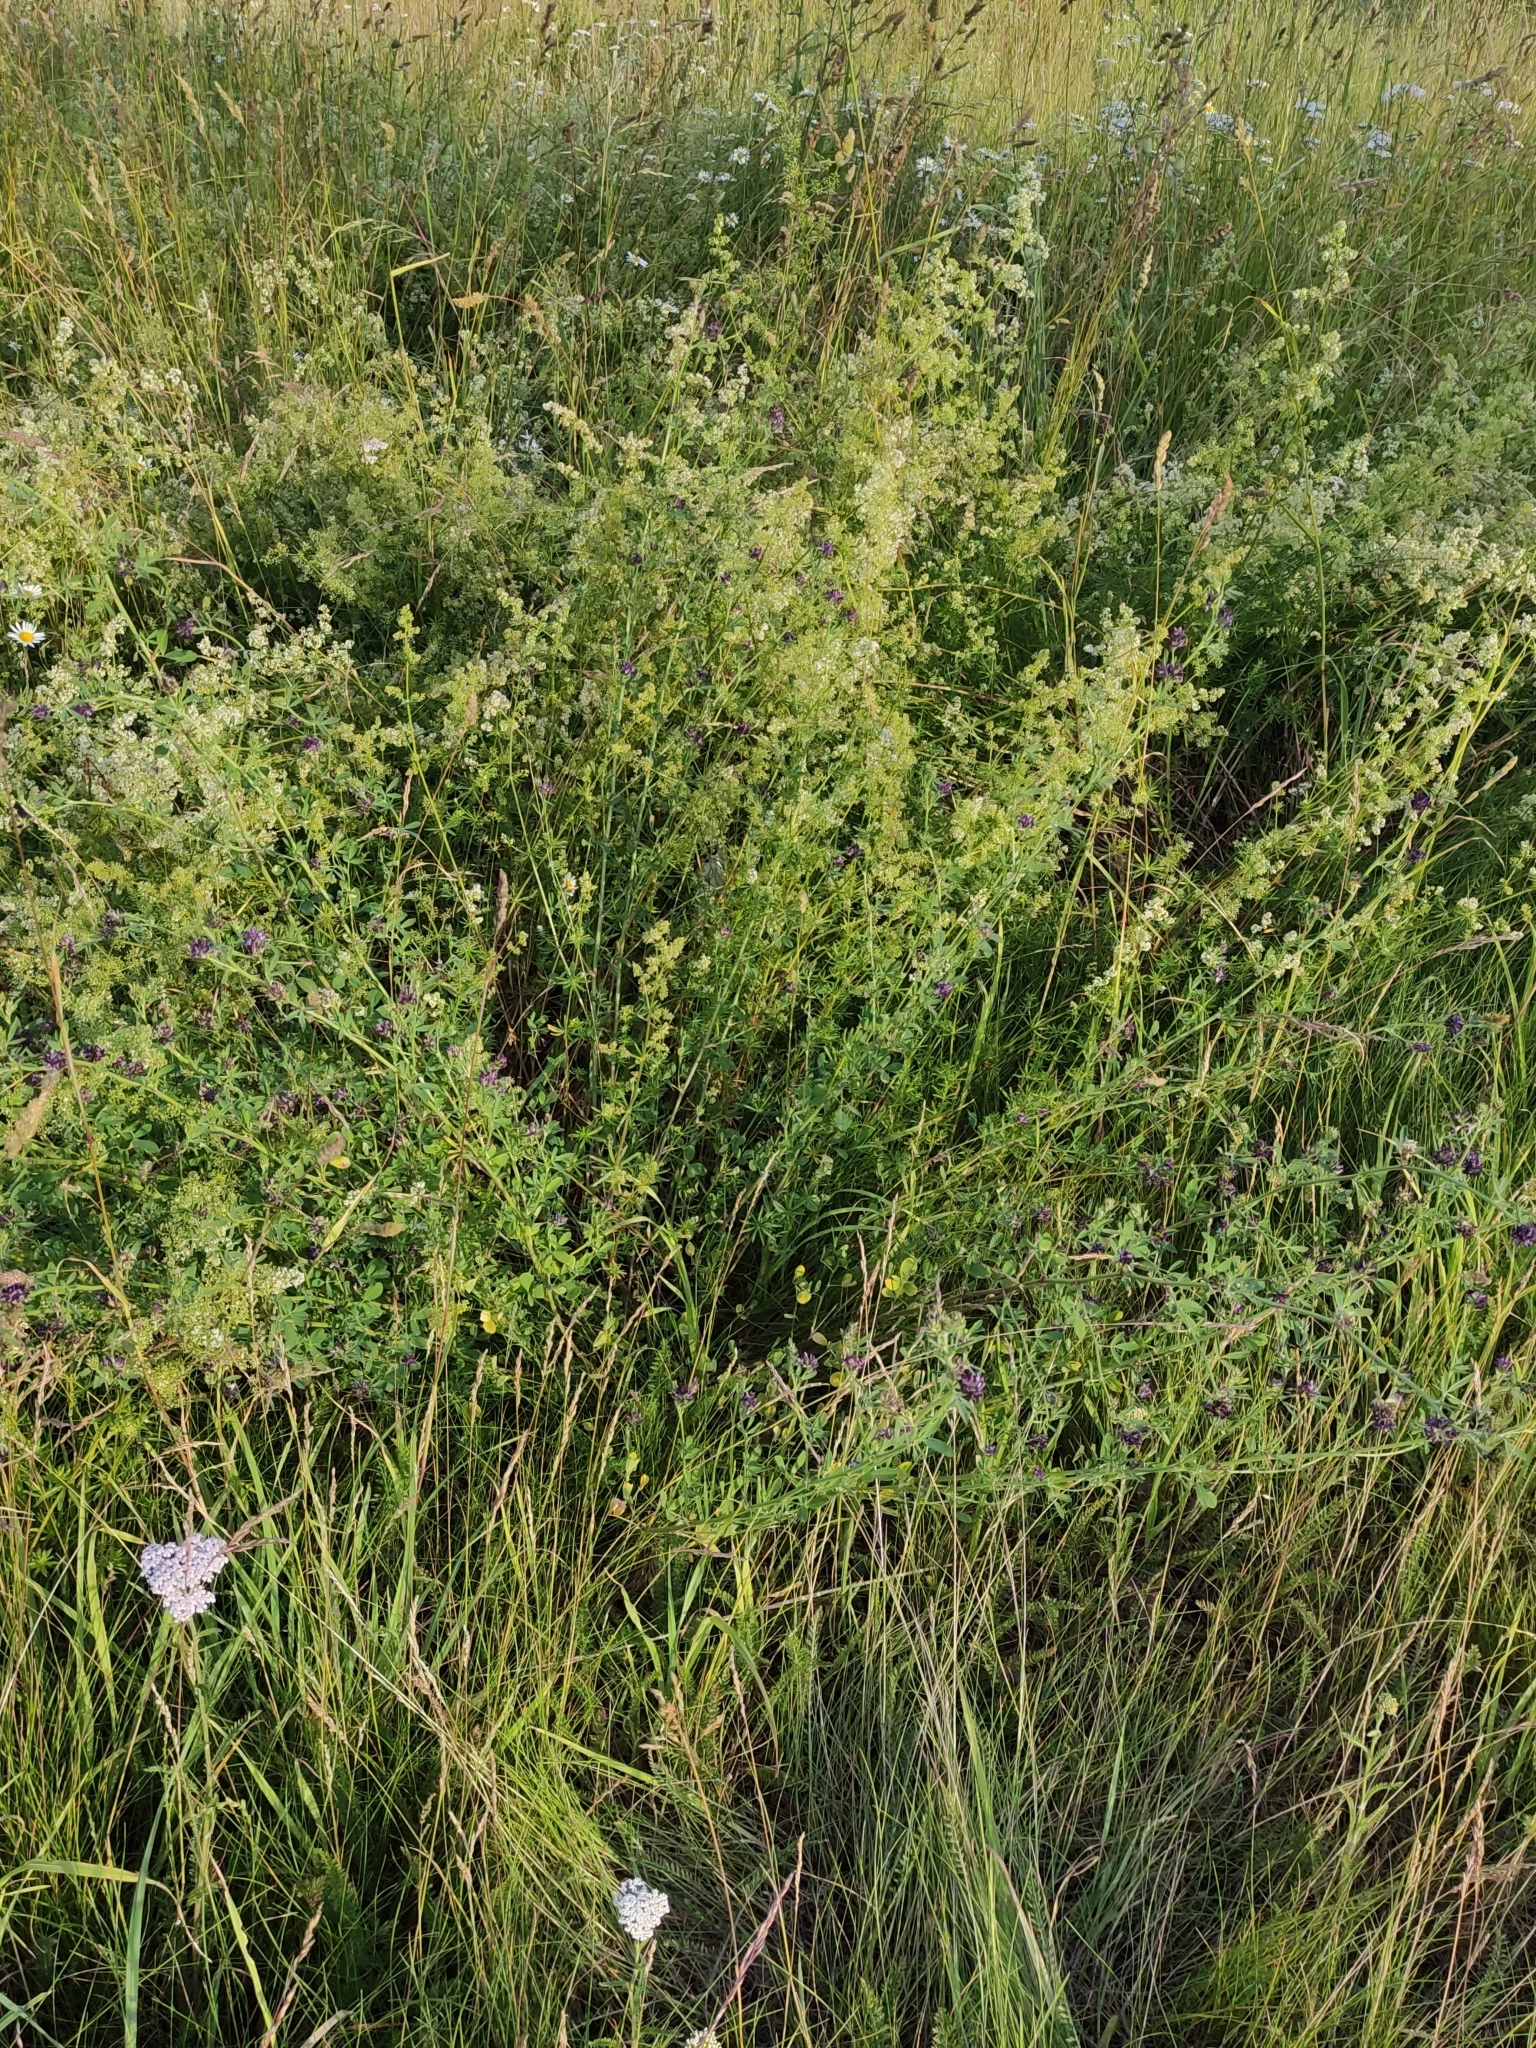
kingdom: Plantae
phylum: Tracheophyta
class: Magnoliopsida
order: Fabales
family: Fabaceae
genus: Medicago
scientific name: Medicago sativa
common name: Alfalfa
